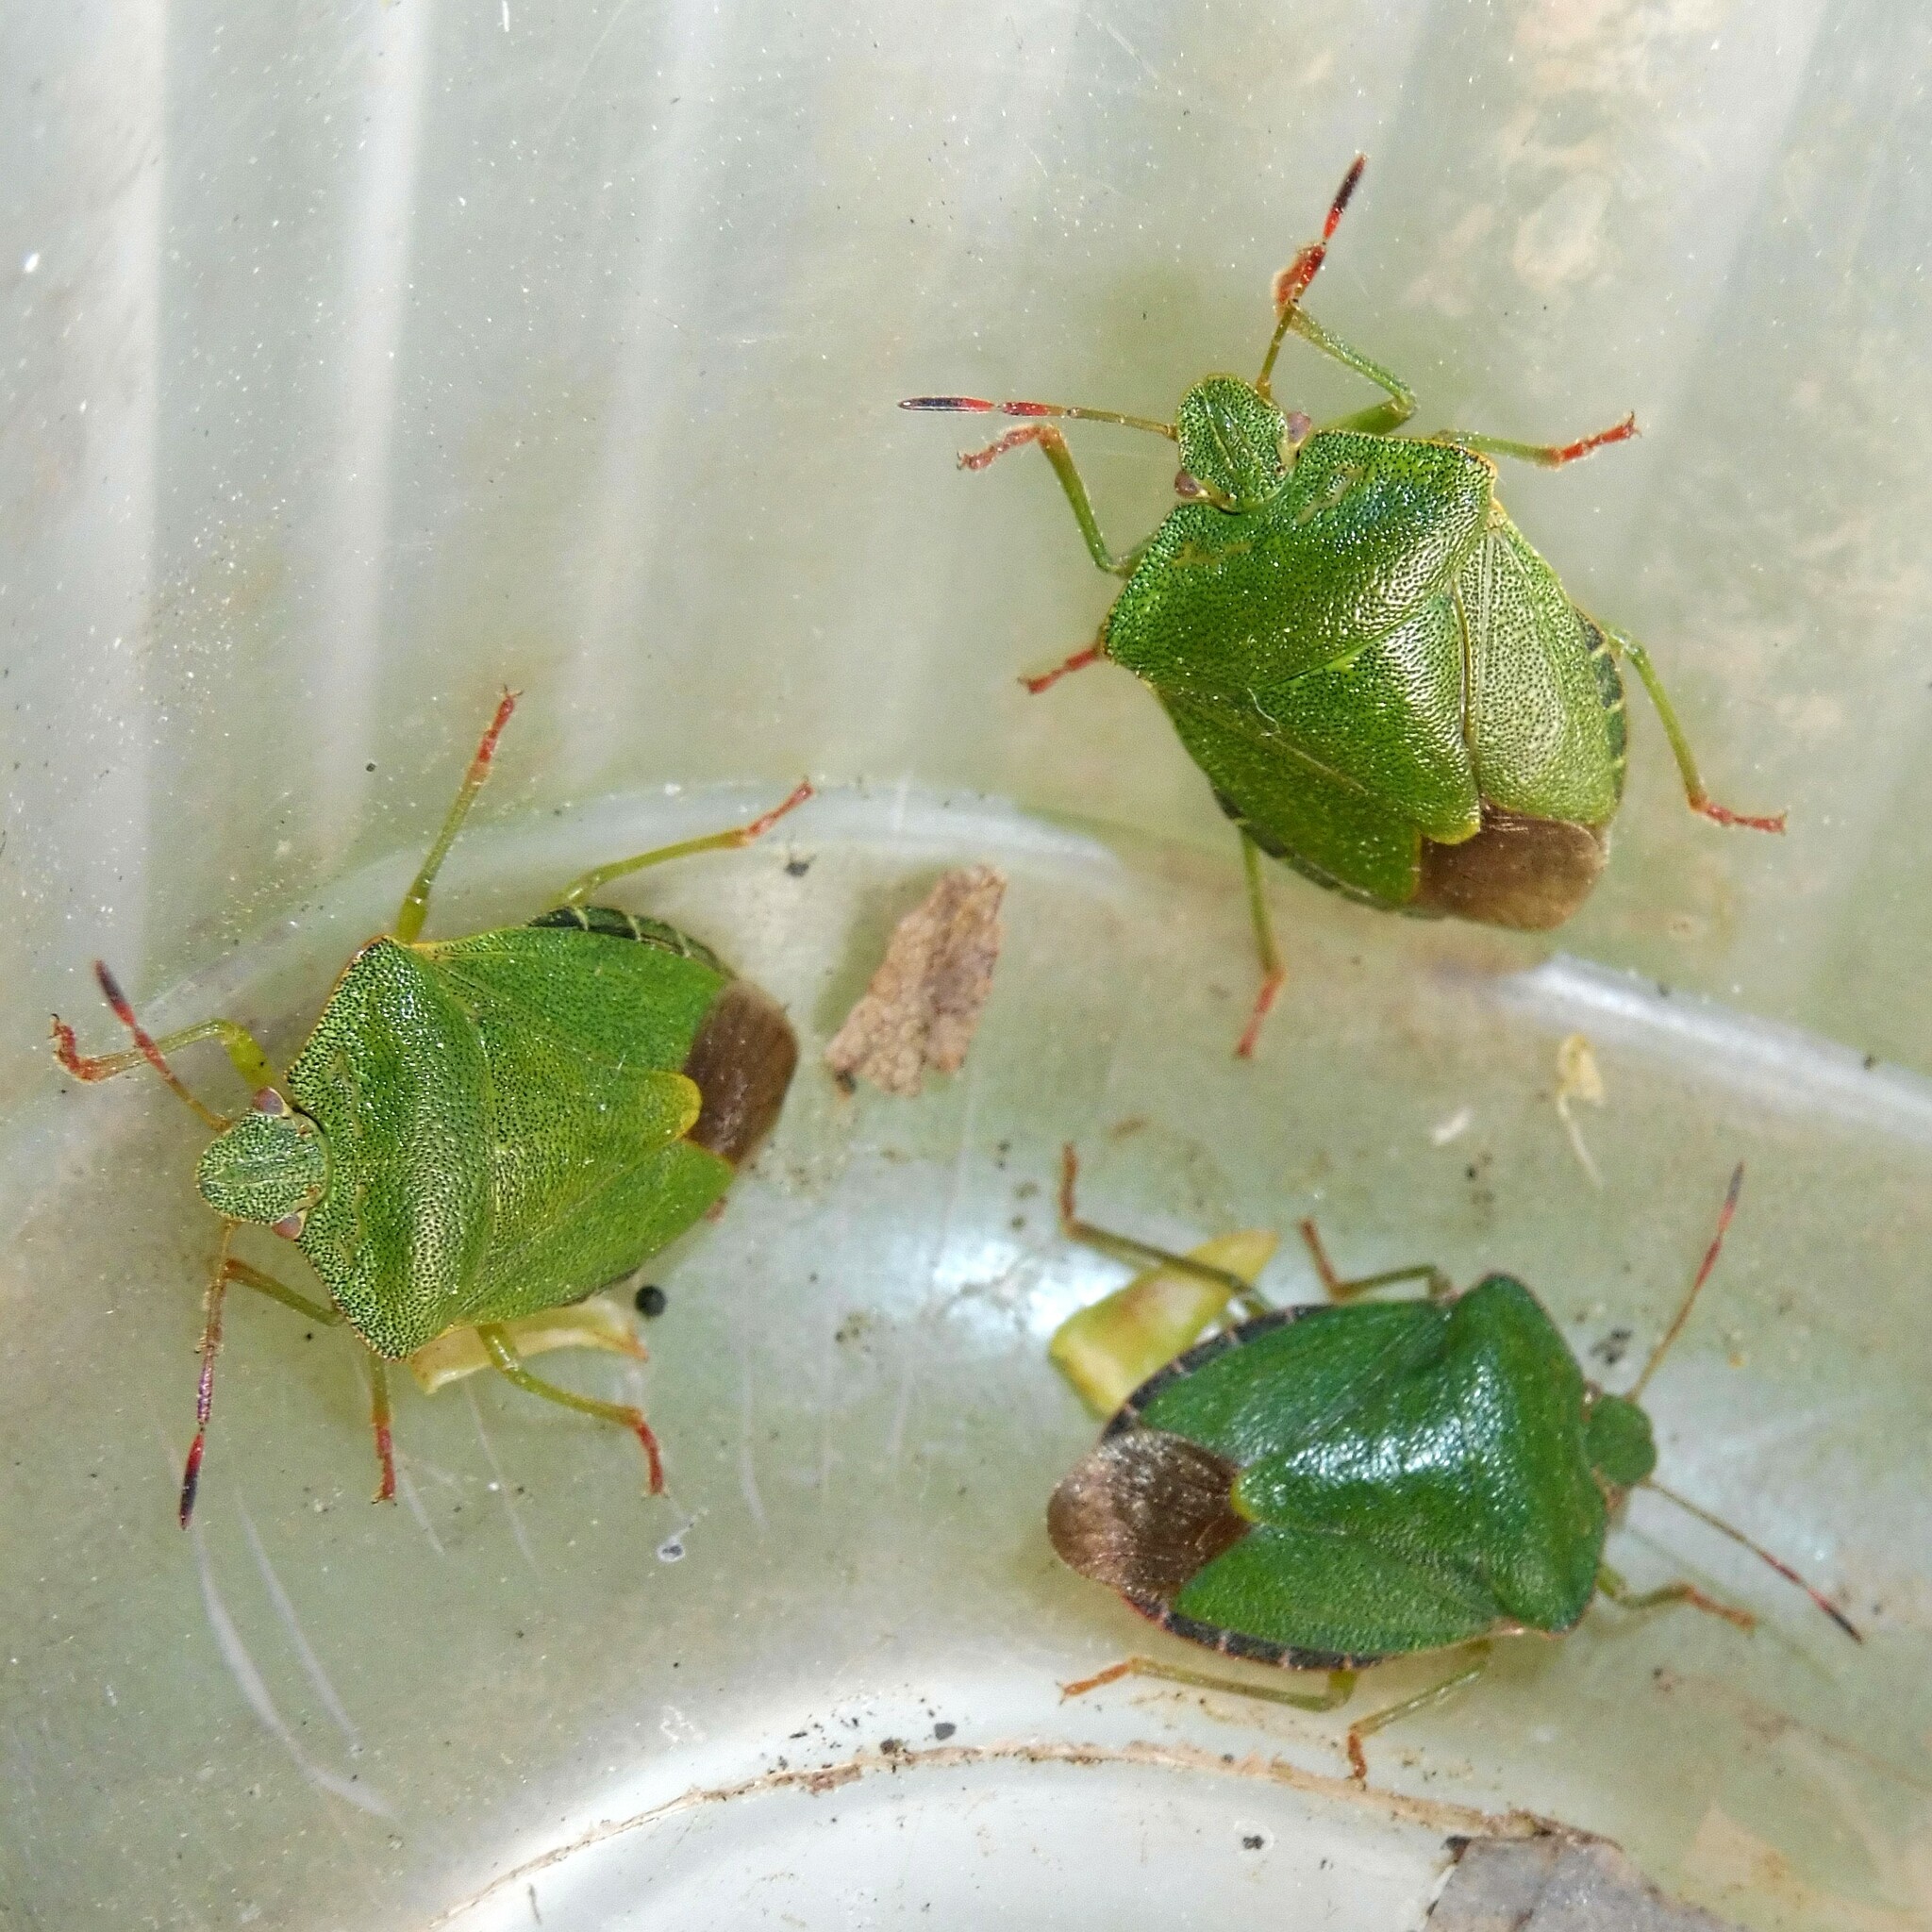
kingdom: Animalia
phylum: Arthropoda
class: Insecta
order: Hemiptera
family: Pentatomidae
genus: Palomena
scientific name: Palomena prasina
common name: Green shieldbug
